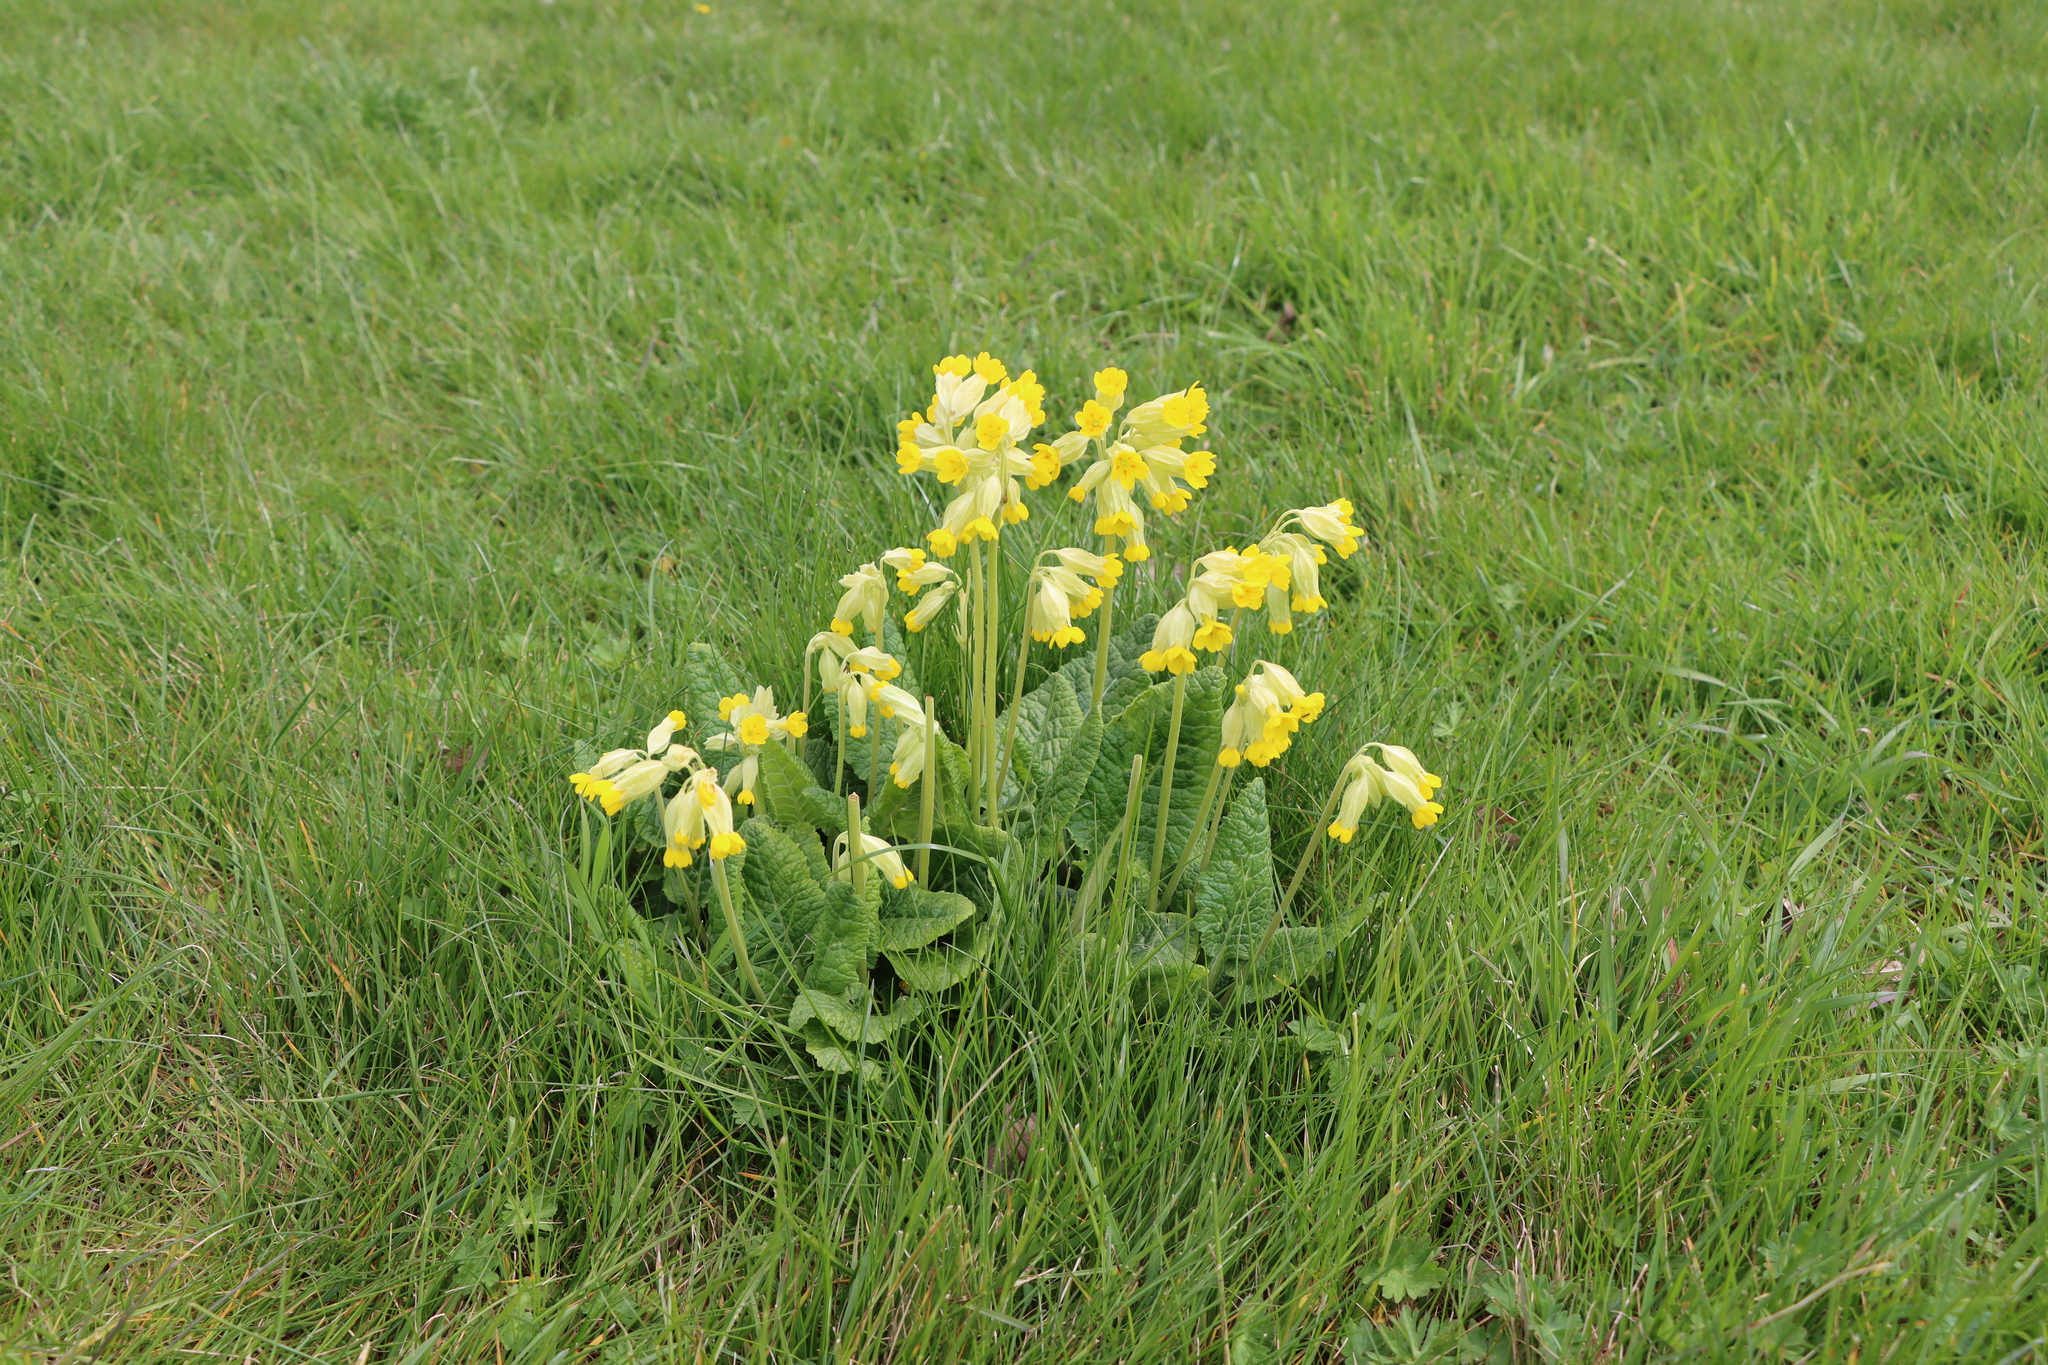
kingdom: Plantae
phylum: Tracheophyta
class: Magnoliopsida
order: Ericales
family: Primulaceae
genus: Primula
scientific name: Primula veris
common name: Cowslip
